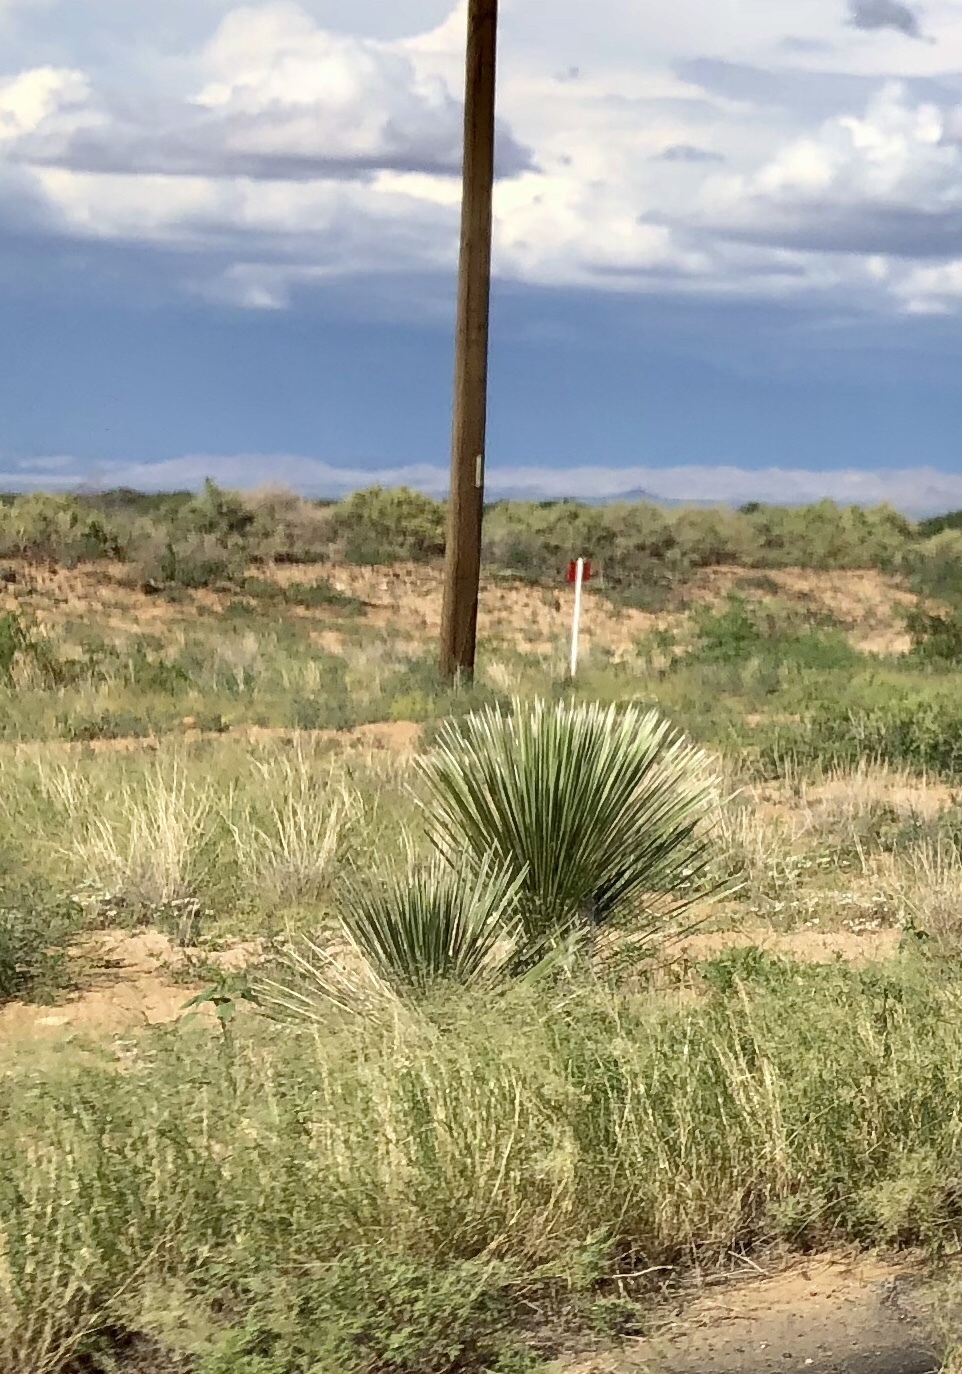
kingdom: Plantae
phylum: Tracheophyta
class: Liliopsida
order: Asparagales
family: Asparagaceae
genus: Yucca
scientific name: Yucca elata
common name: Palmella
